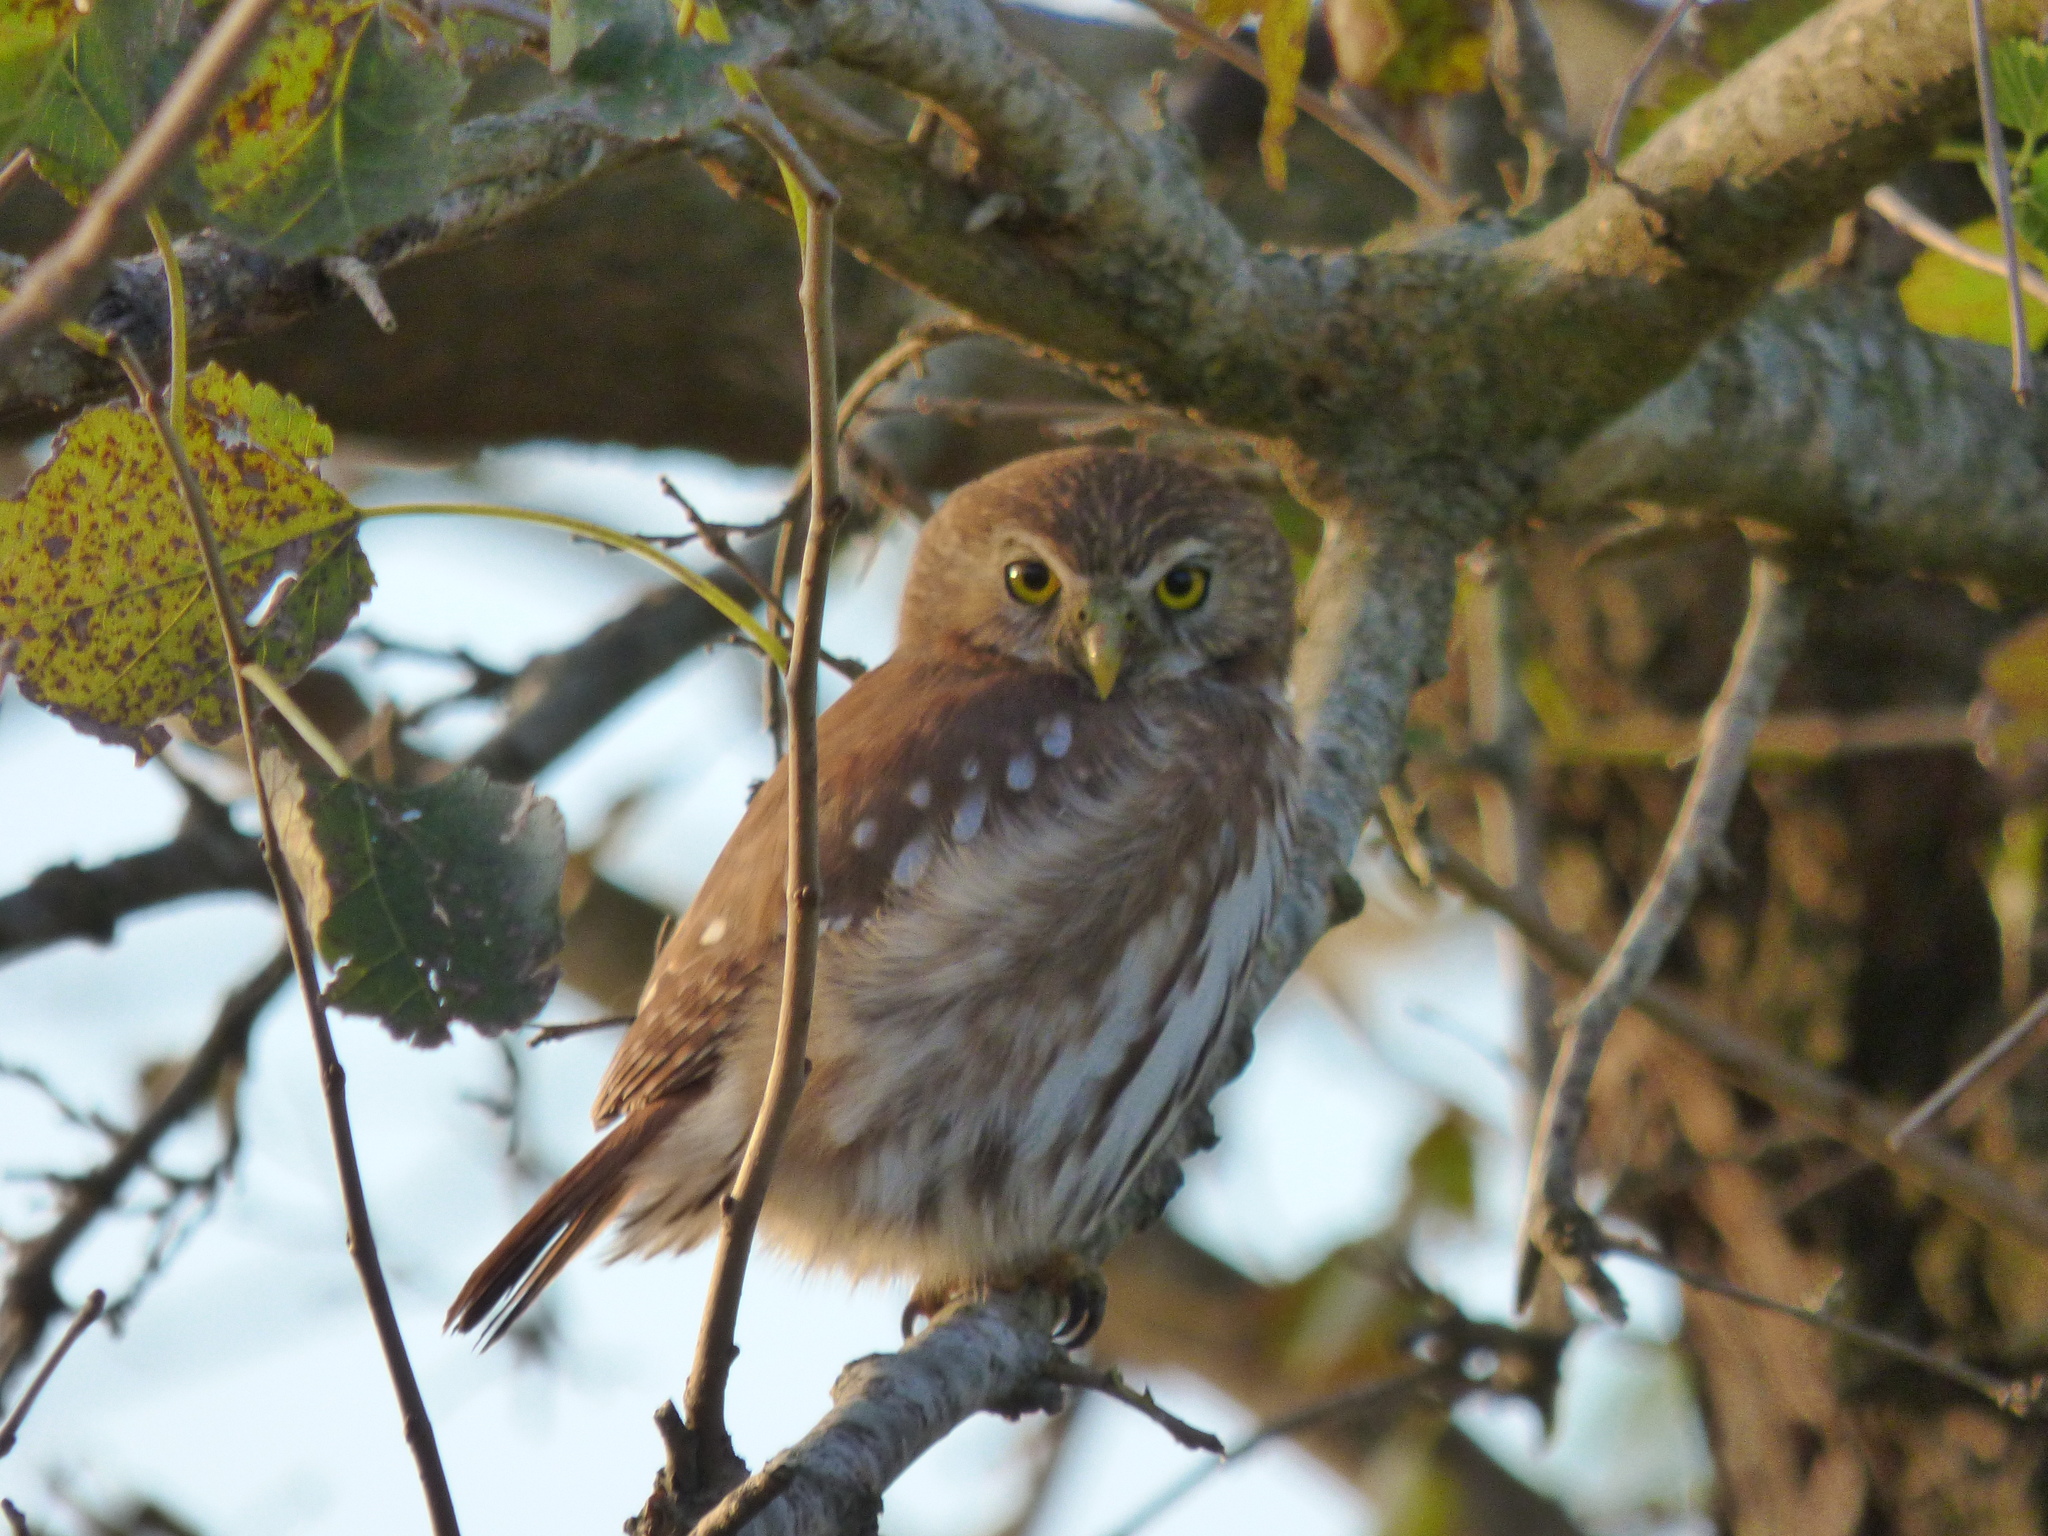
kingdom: Animalia
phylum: Chordata
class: Aves
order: Strigiformes
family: Strigidae
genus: Glaucidium
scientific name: Glaucidium brasilianum
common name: Ferruginous pygmy-owl
